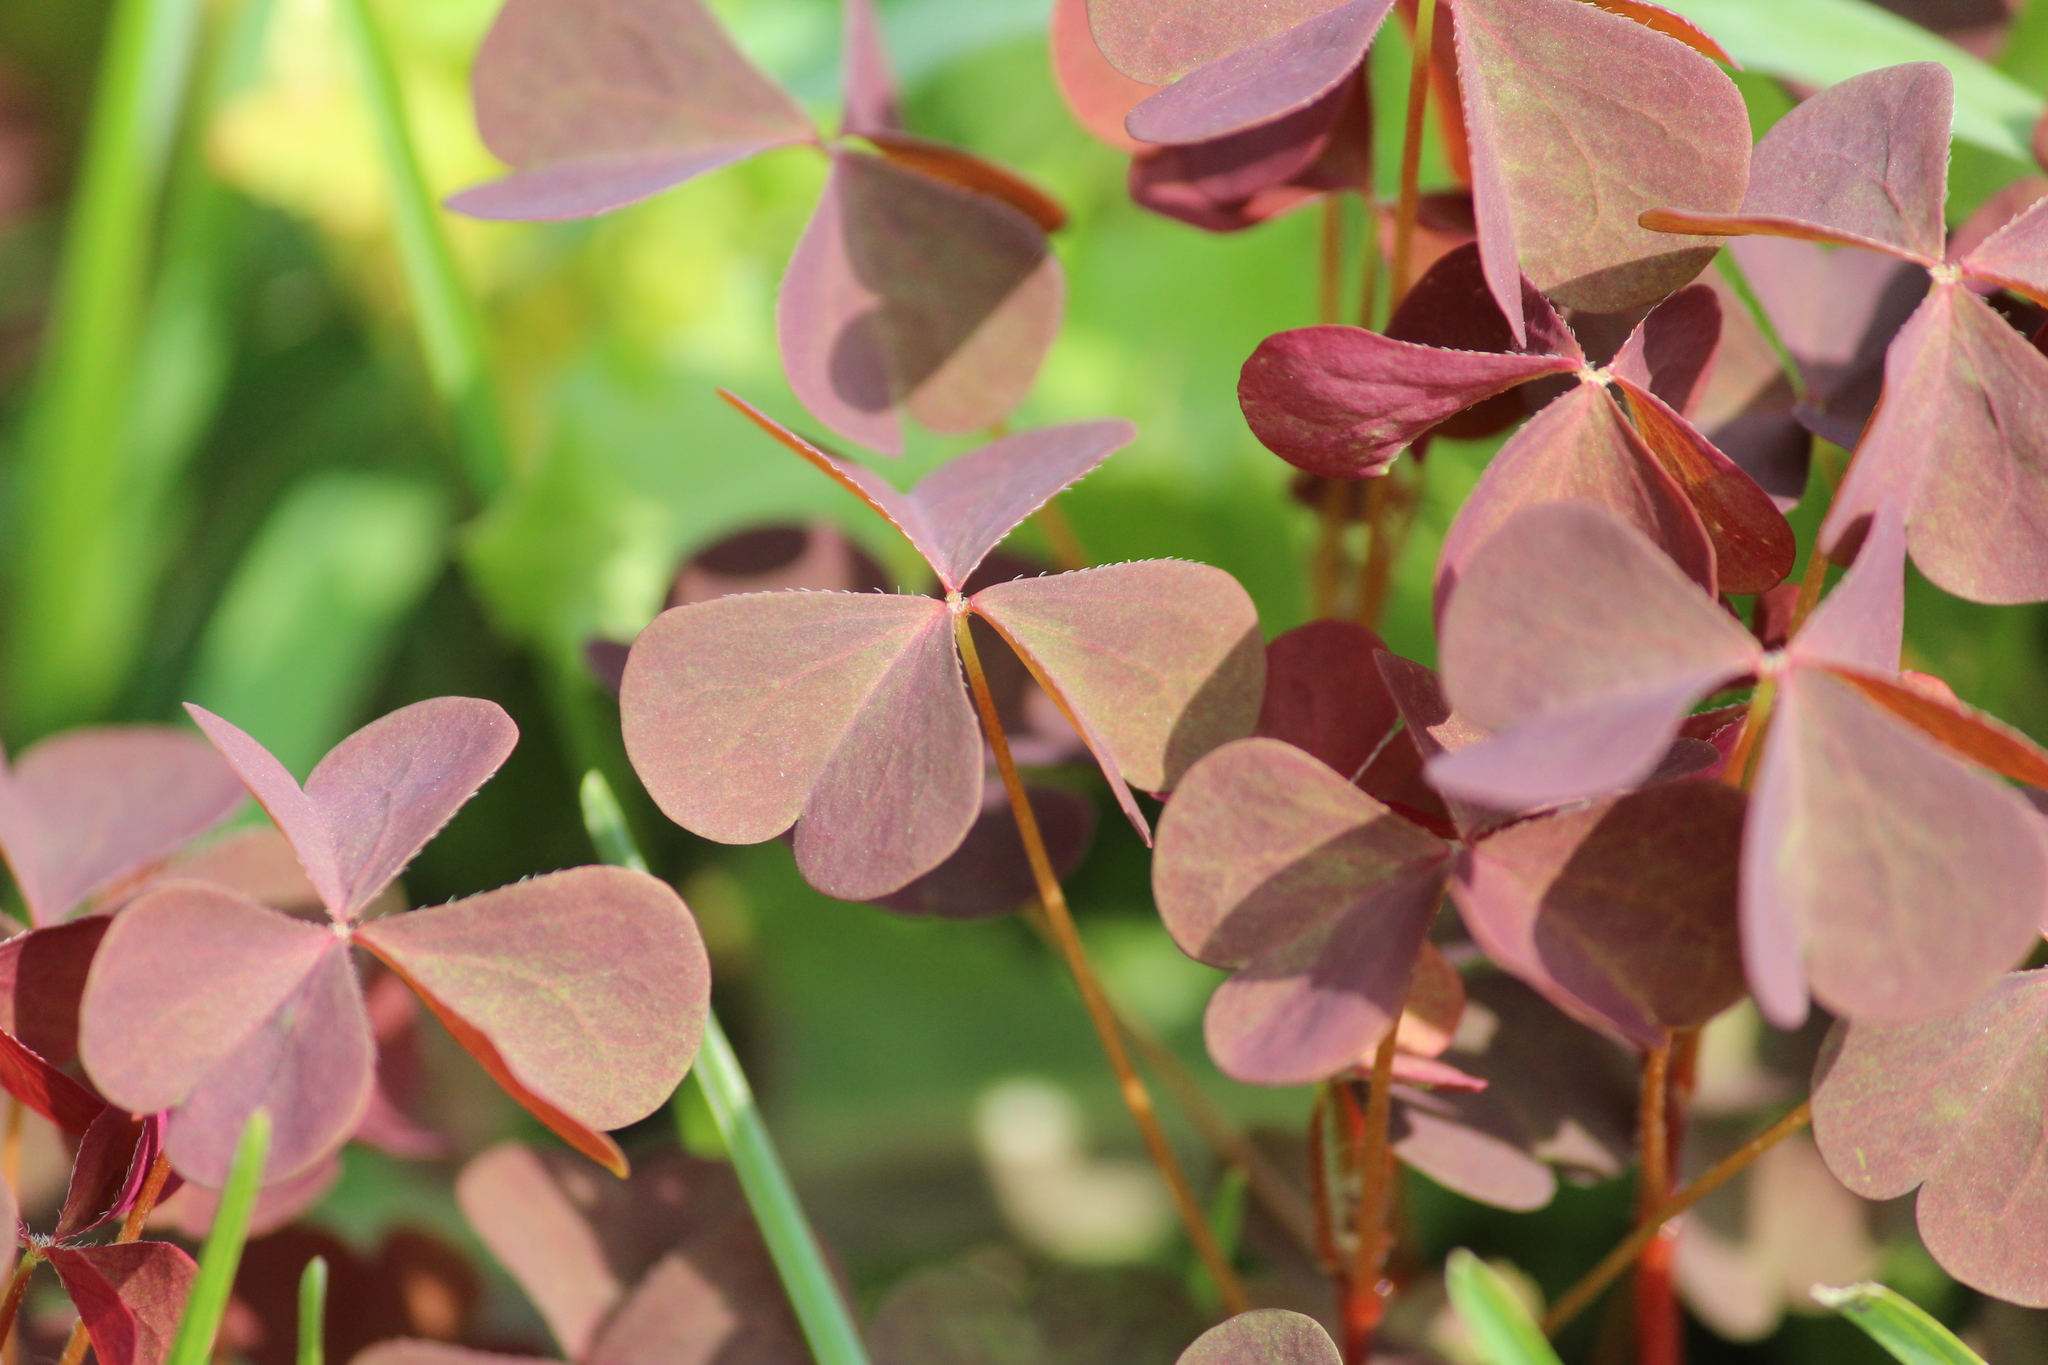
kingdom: Plantae
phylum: Tracheophyta
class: Magnoliopsida
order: Oxalidales
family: Oxalidaceae
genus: Oxalis
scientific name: Oxalis stricta
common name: Upright yellow-sorrel
